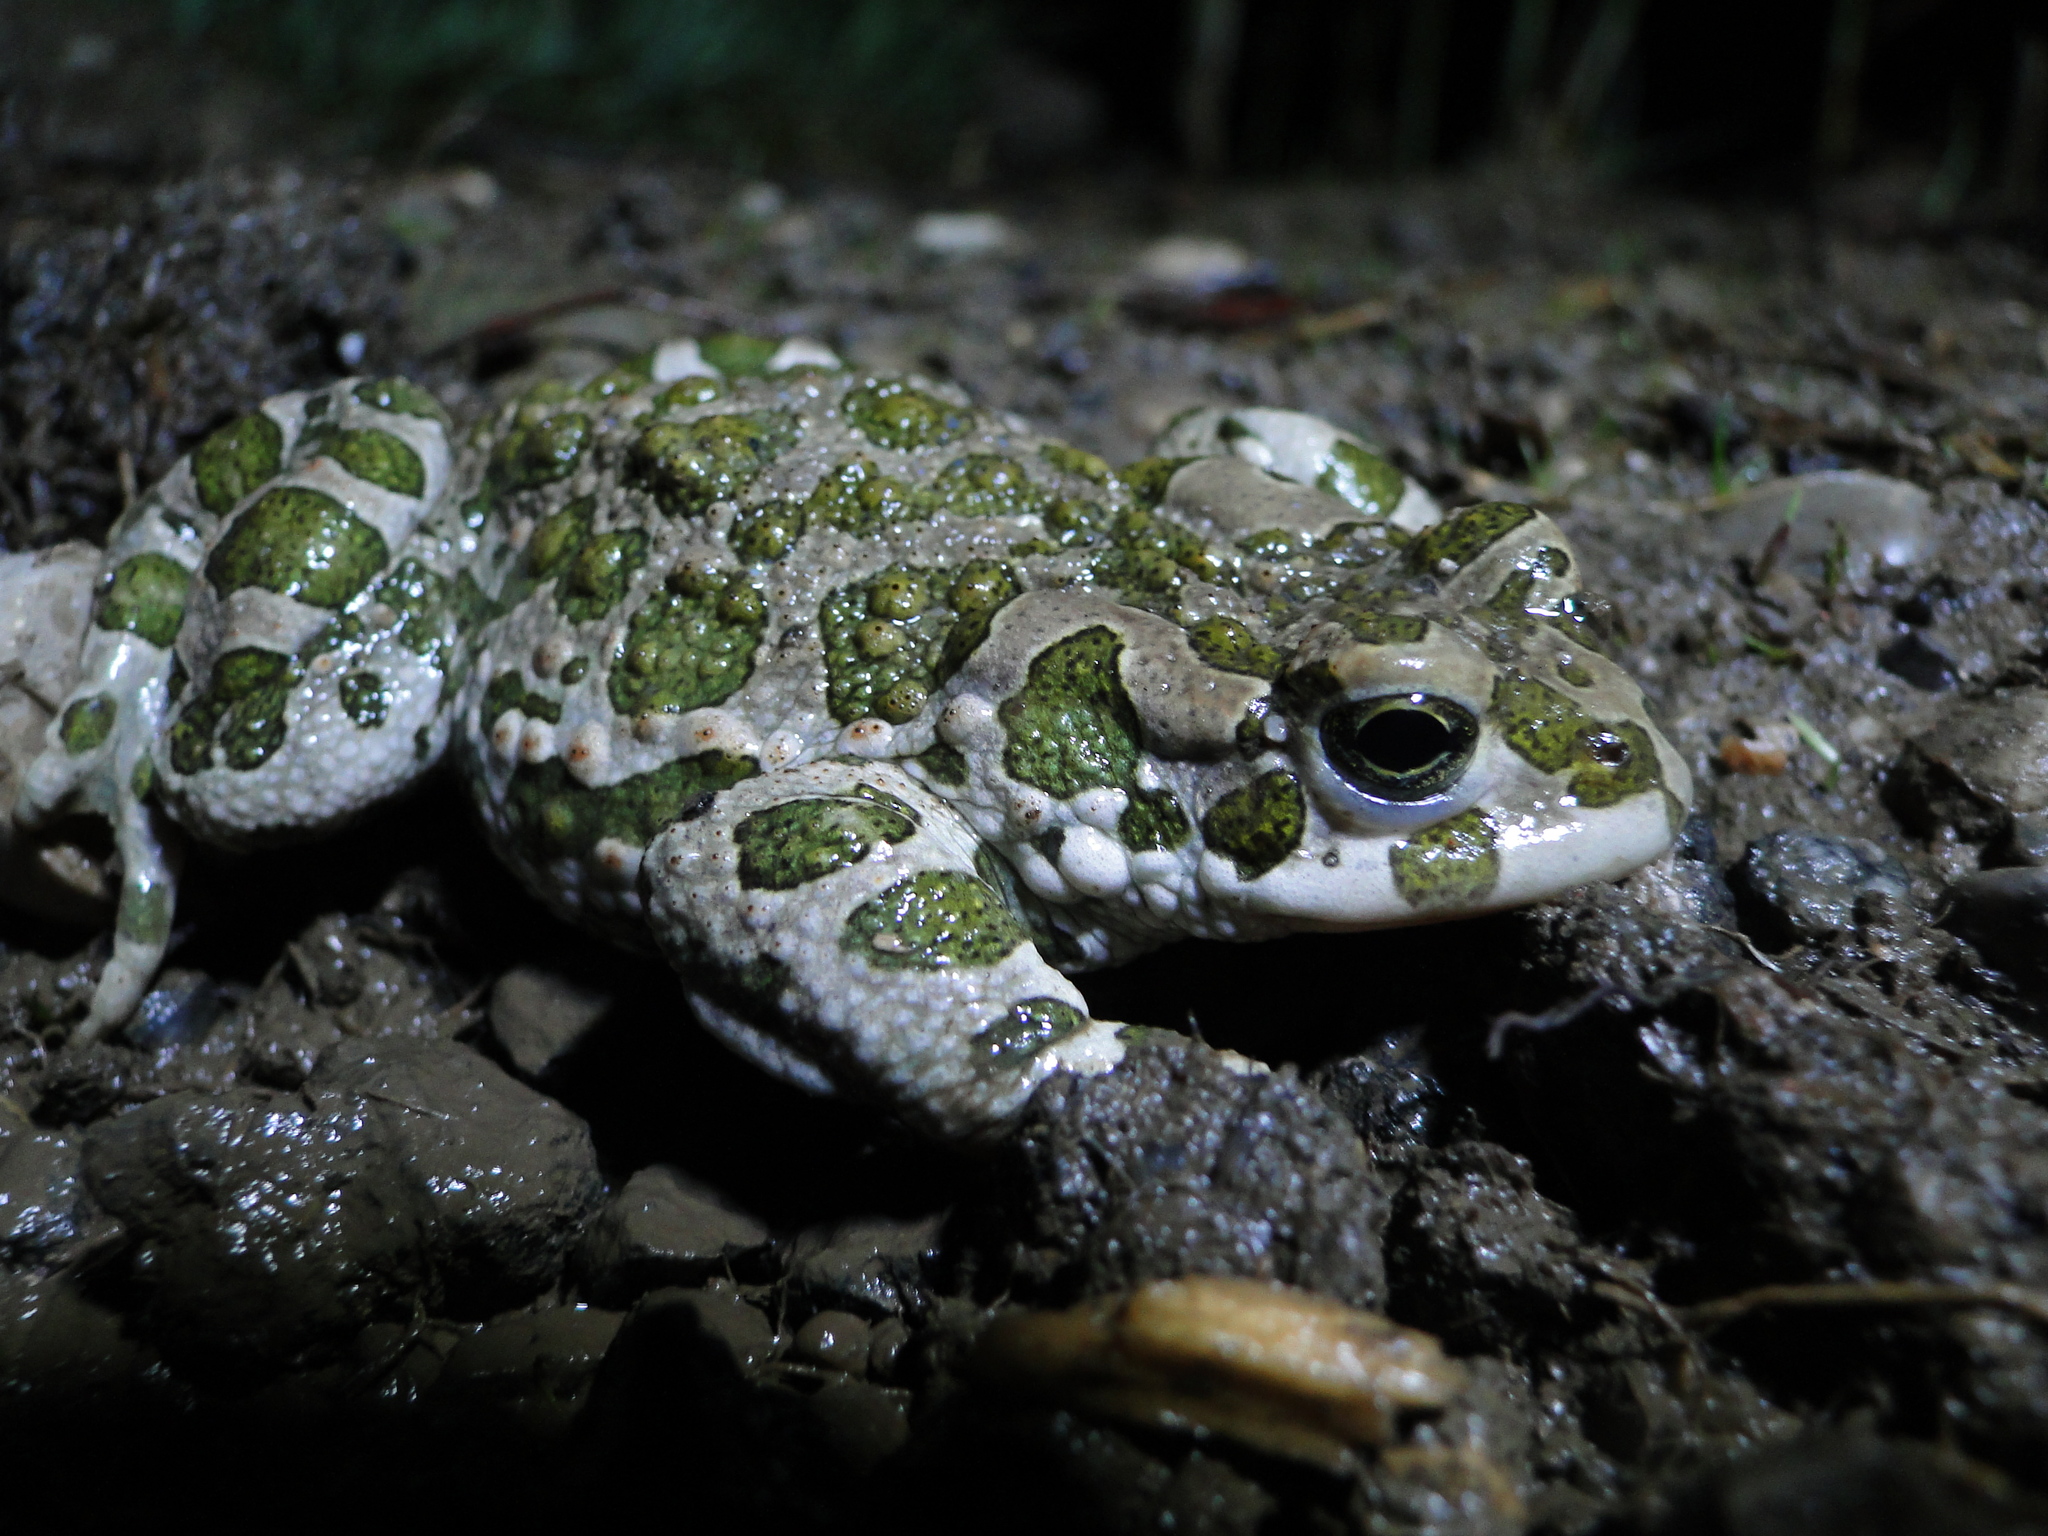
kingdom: Animalia
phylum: Chordata
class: Amphibia
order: Anura
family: Bufonidae
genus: Bufotes
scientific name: Bufotes viridis
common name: European green toad
